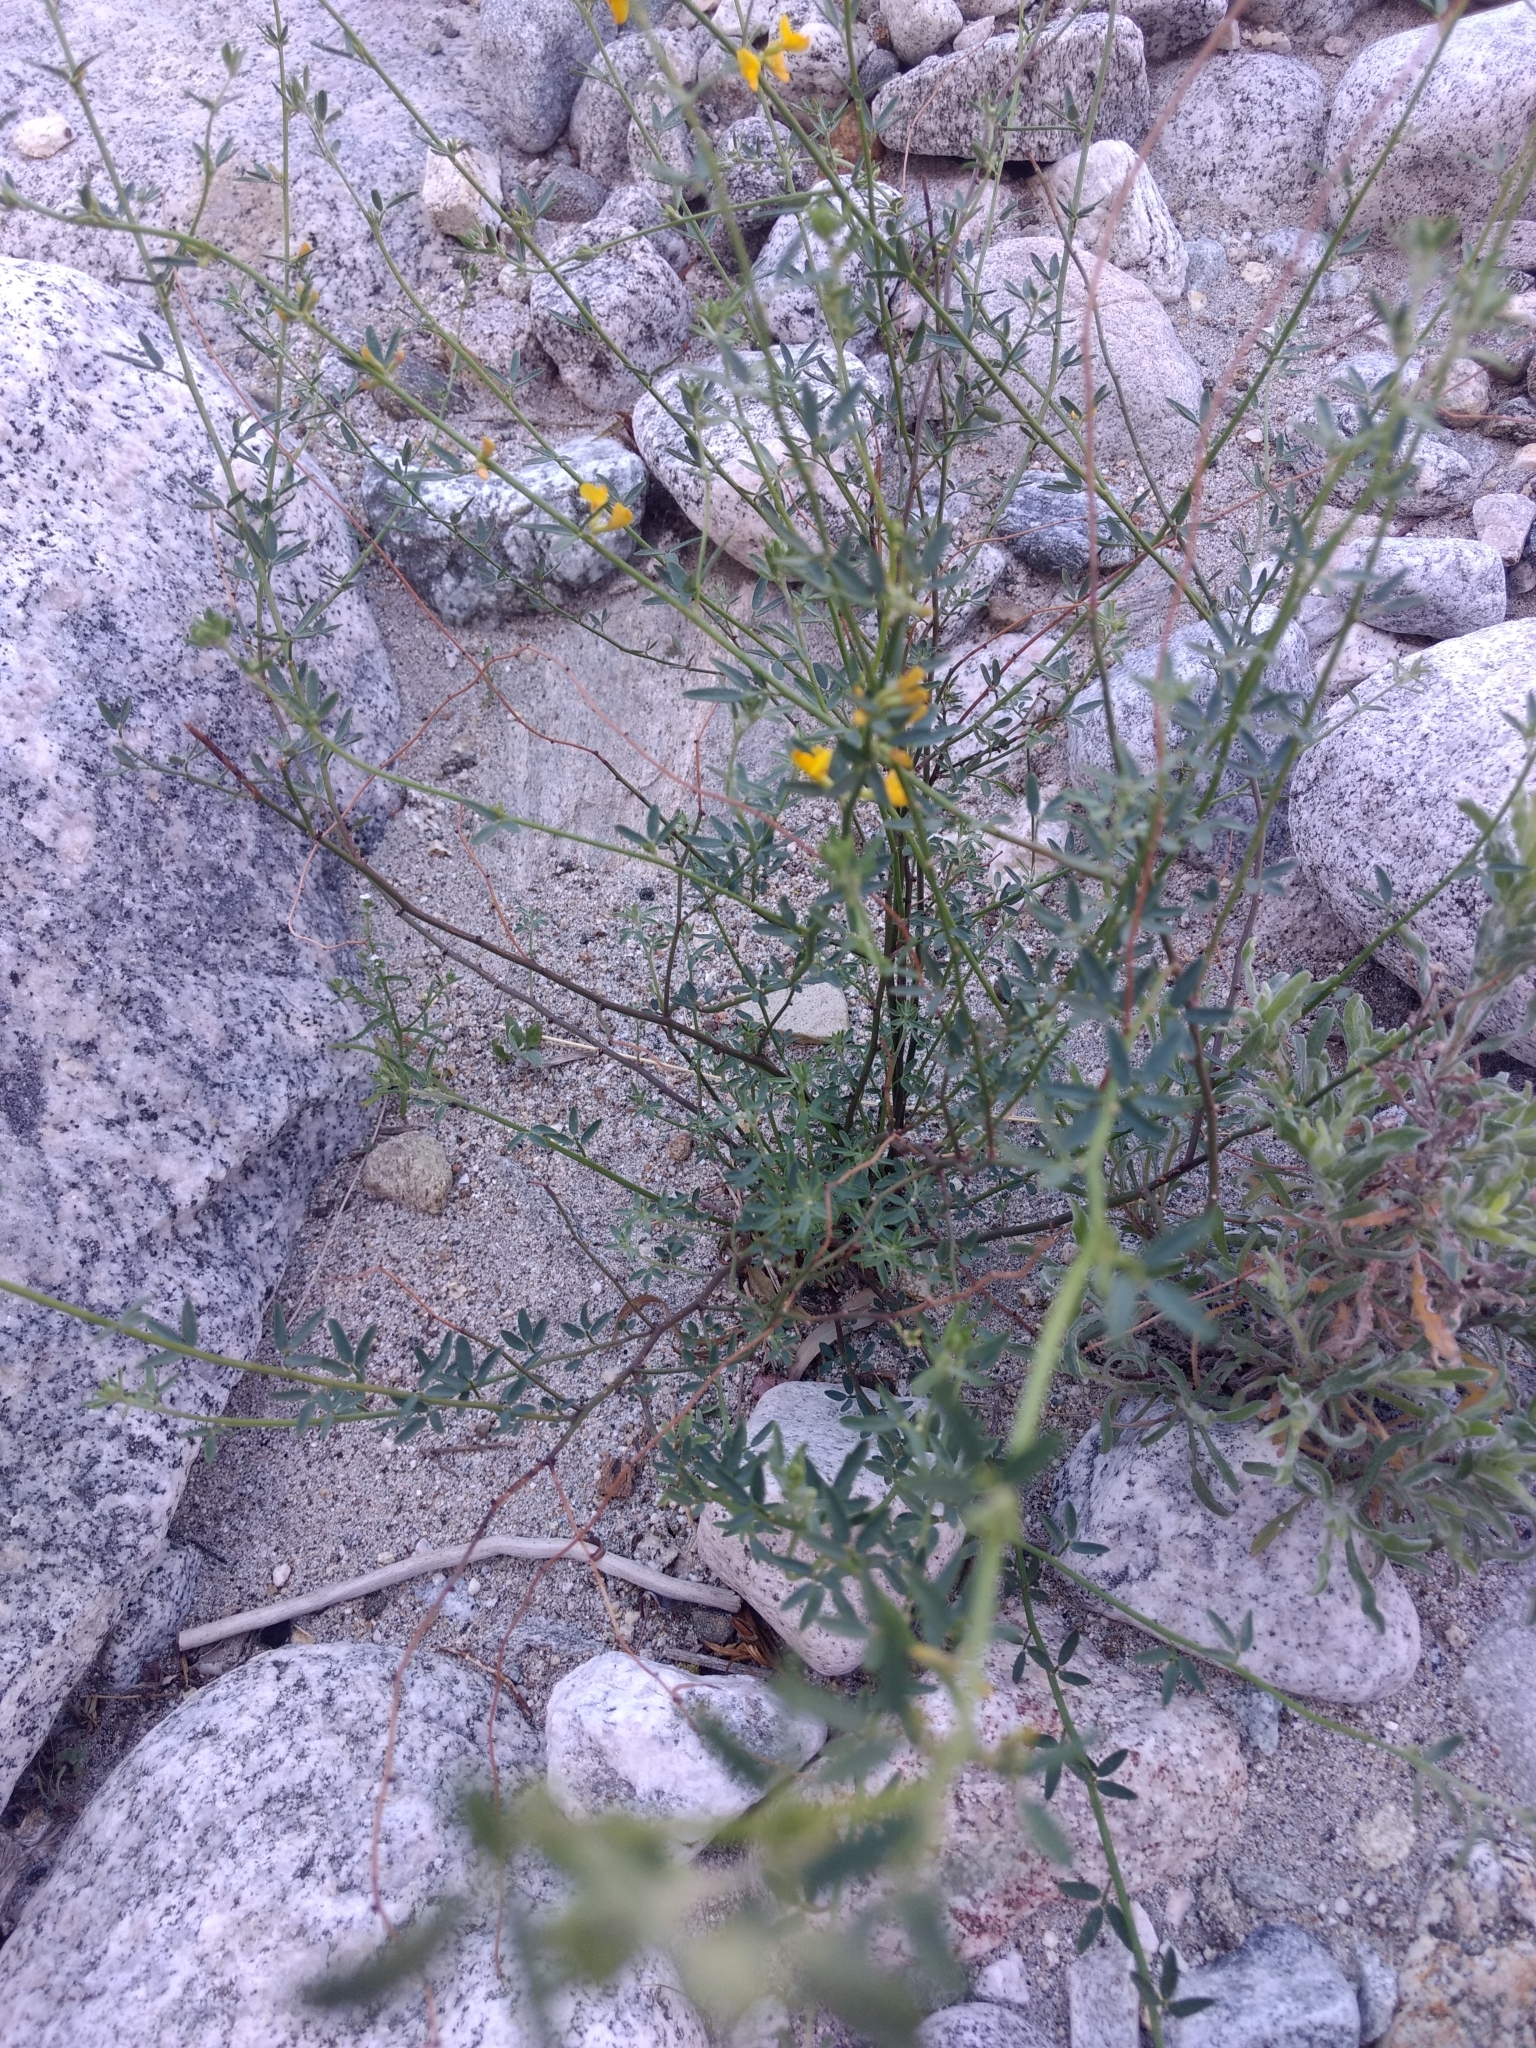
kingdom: Plantae
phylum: Tracheophyta
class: Magnoliopsida
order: Fabales
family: Fabaceae
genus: Acmispon
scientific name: Acmispon glaber
